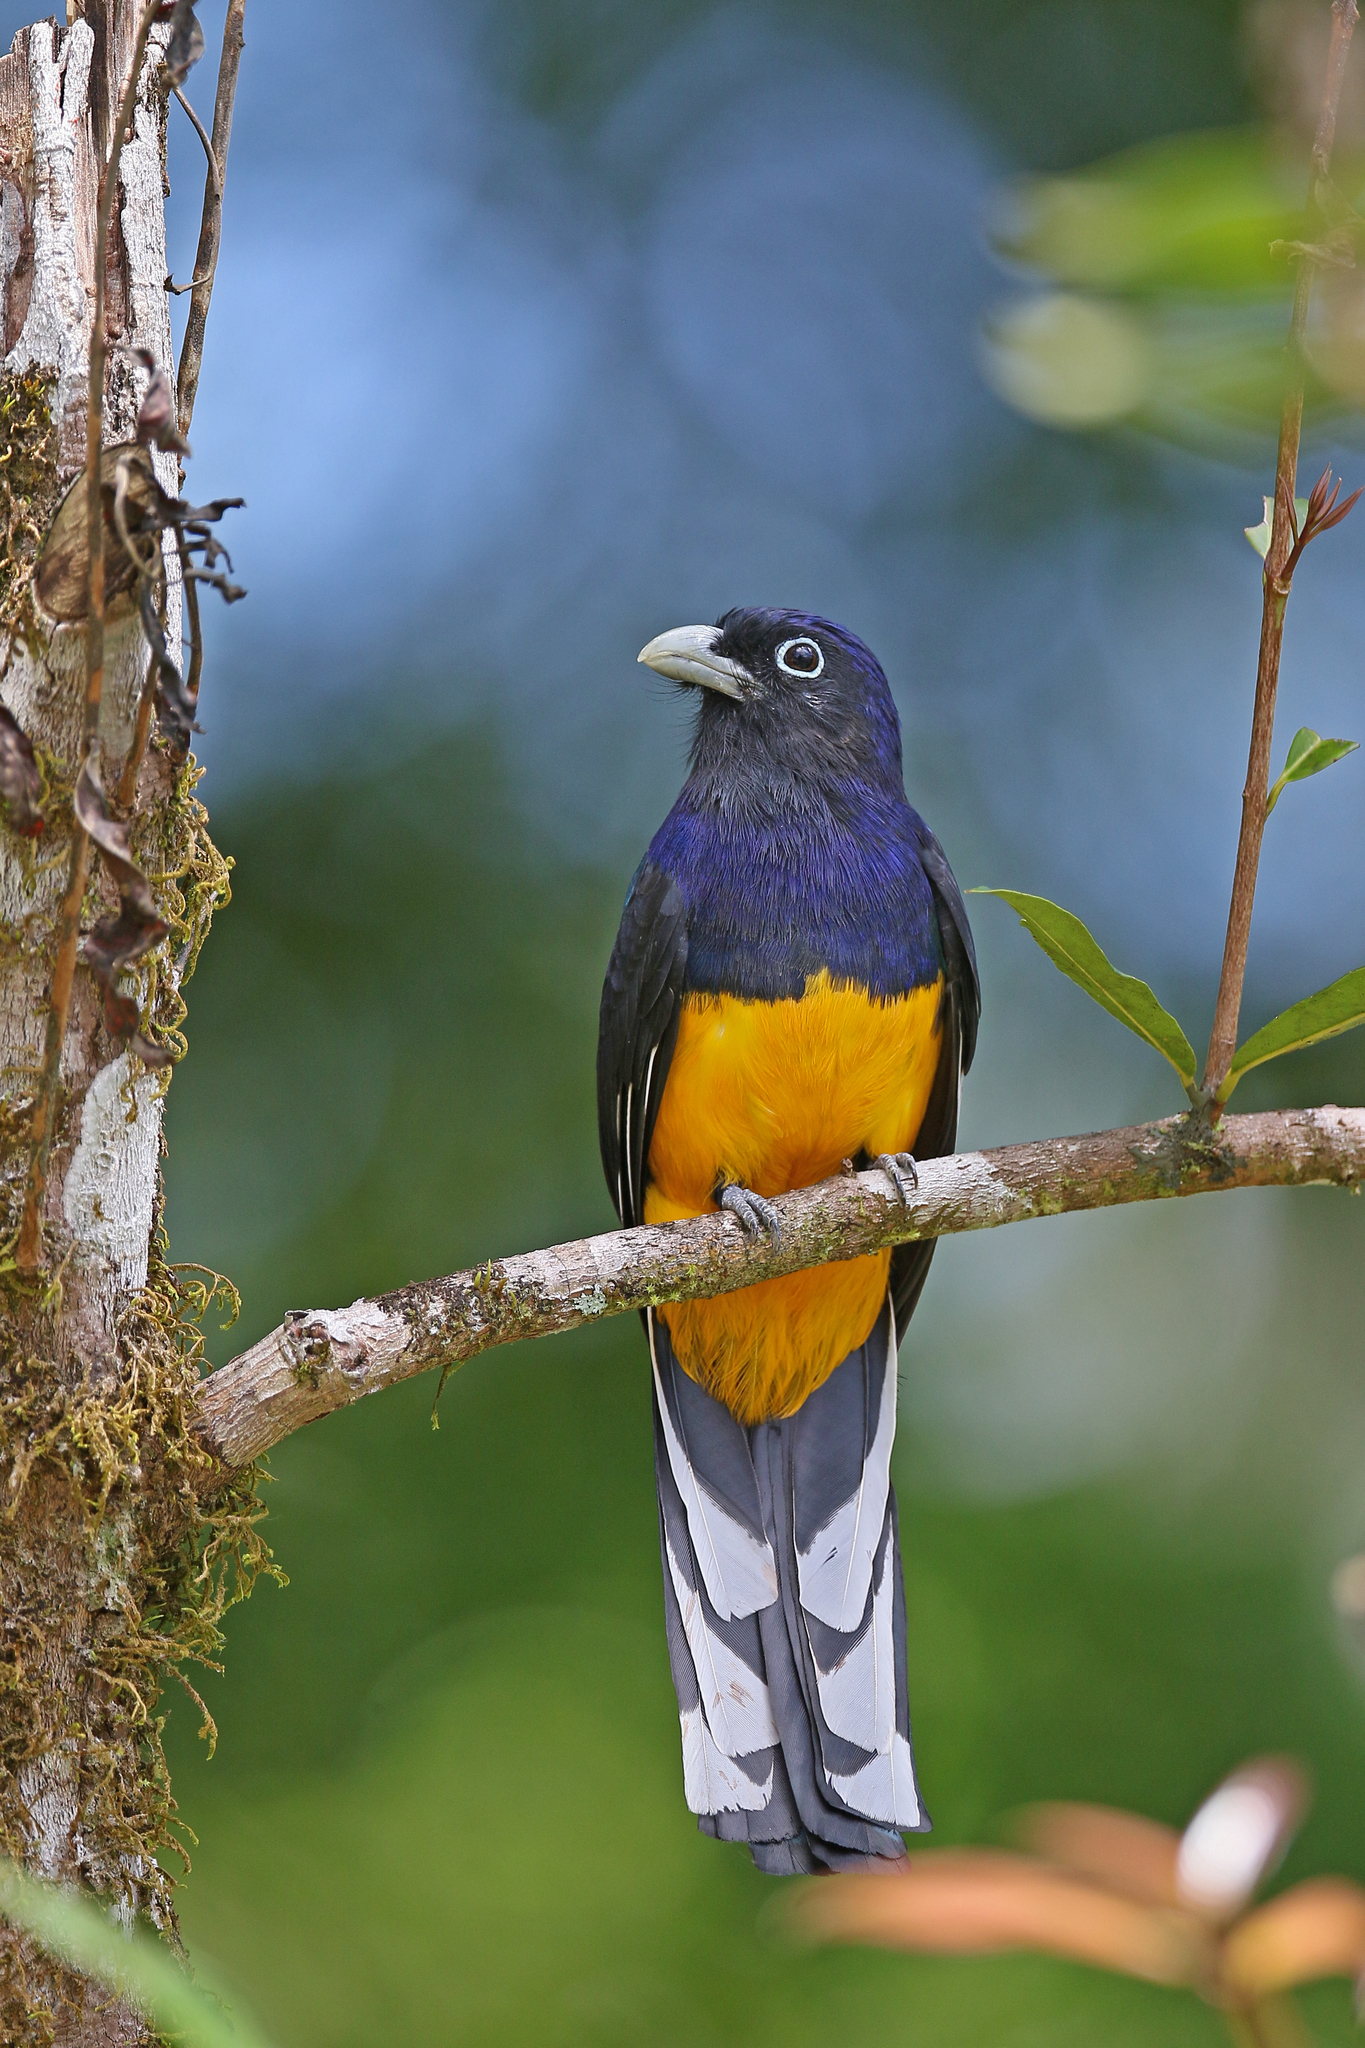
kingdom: Animalia
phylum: Chordata
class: Aves
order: Trogoniformes
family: Trogonidae
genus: Trogon
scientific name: Trogon viridis
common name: Green-backed trogon
